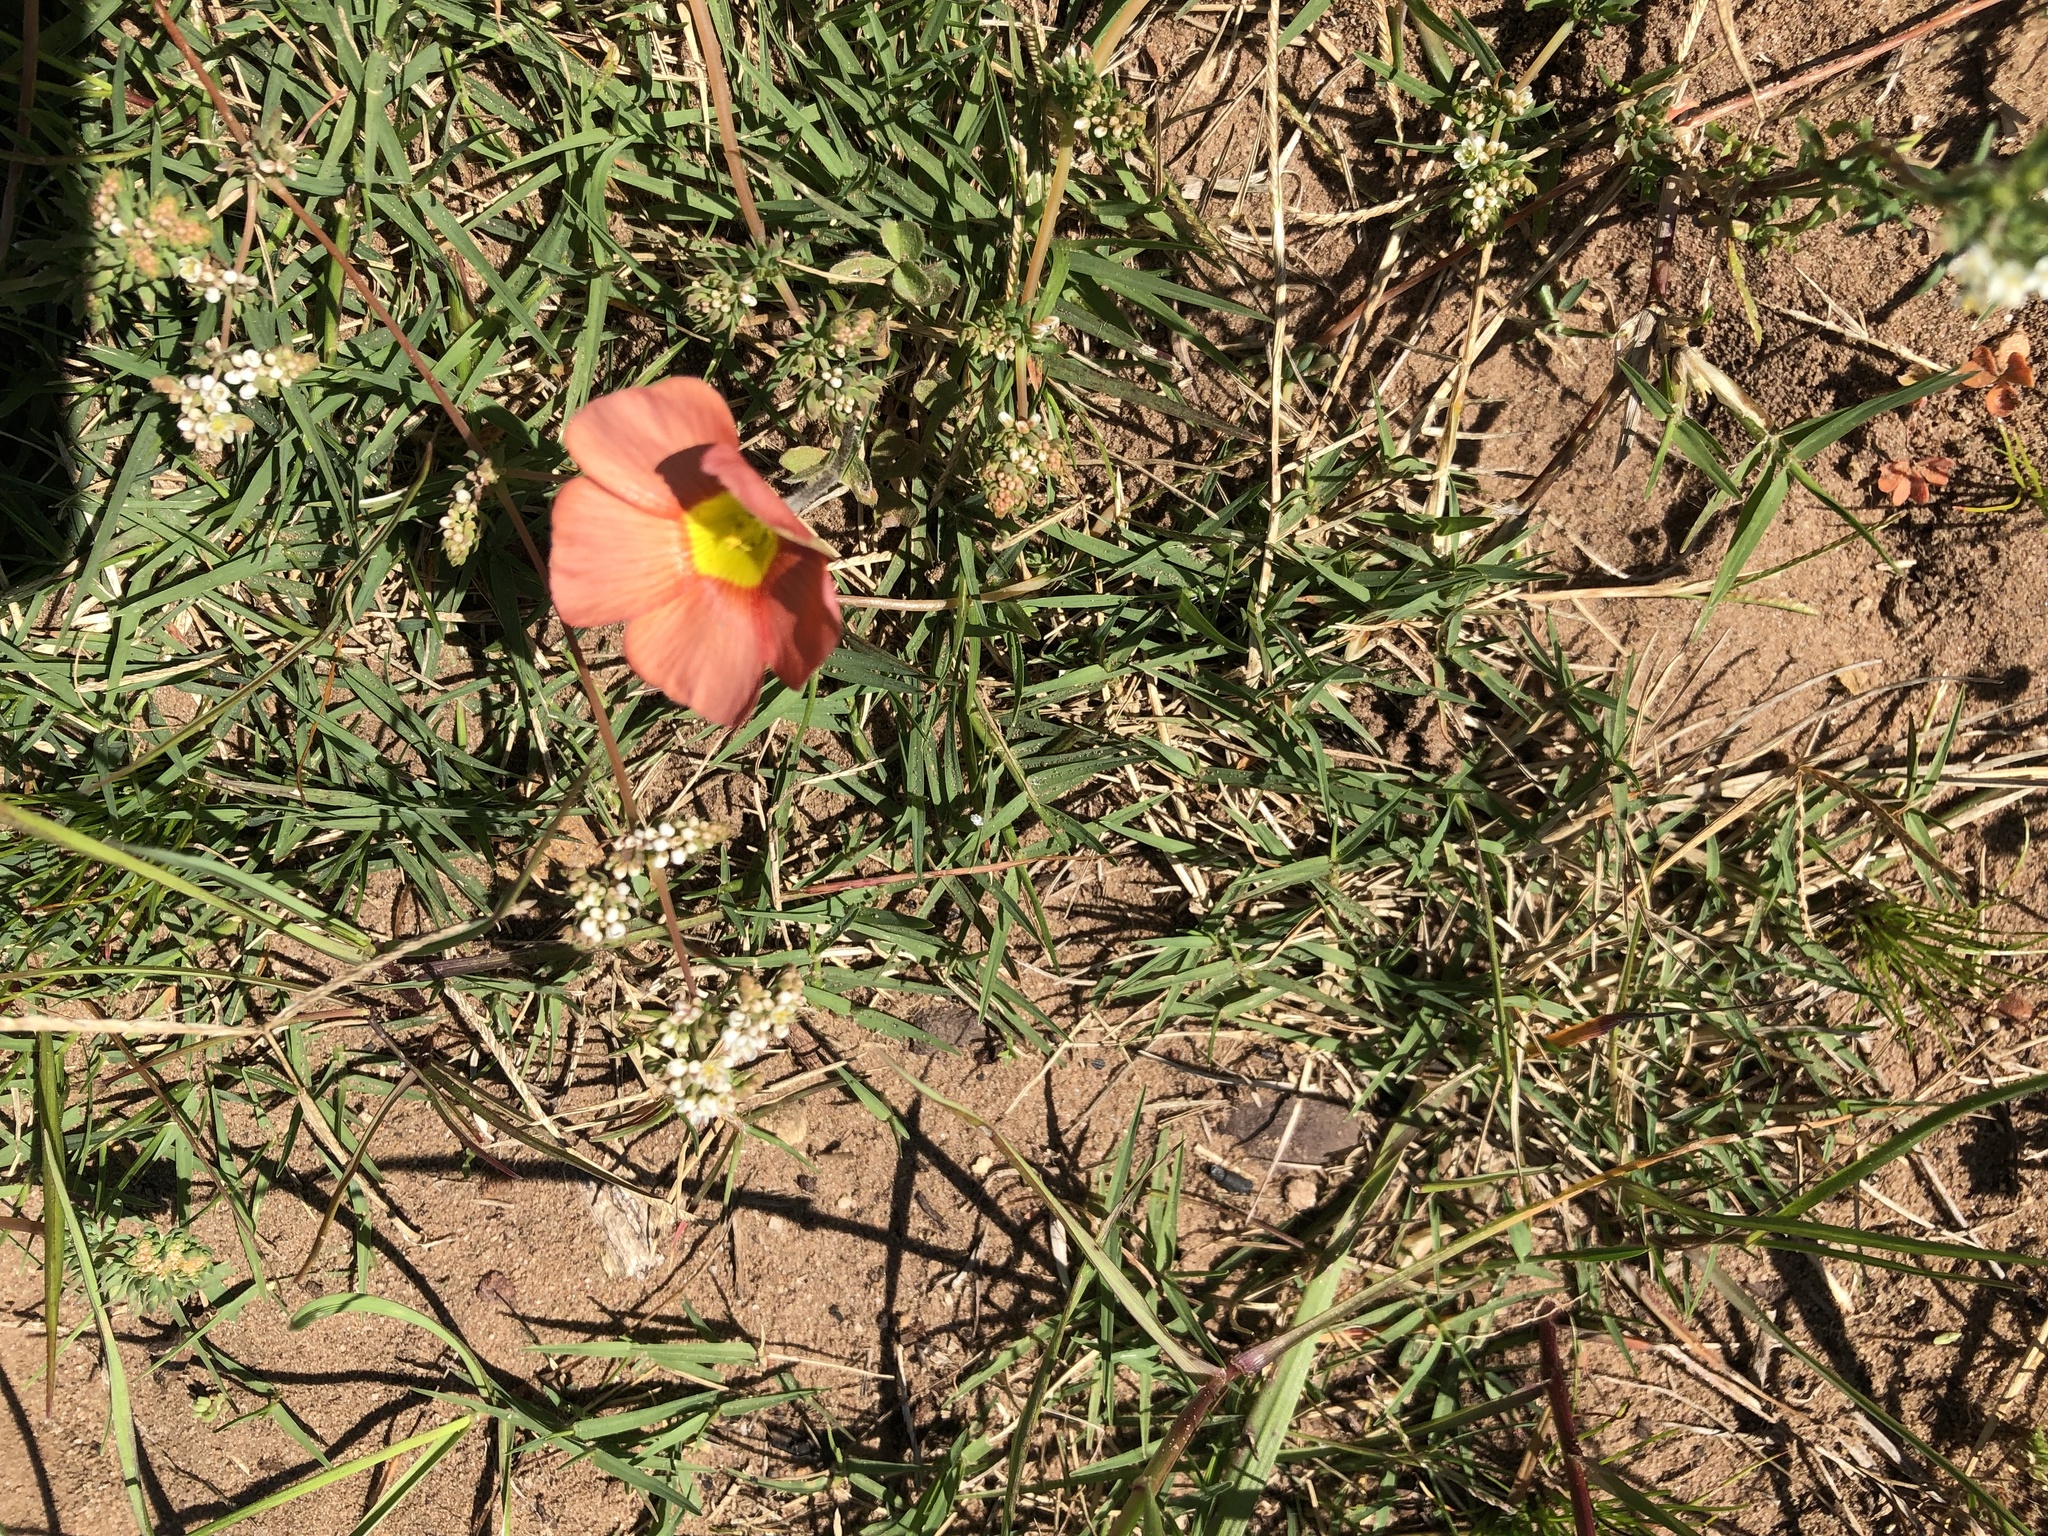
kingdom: Plantae
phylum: Tracheophyta
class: Magnoliopsida
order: Oxalidales
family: Oxalidaceae
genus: Oxalis
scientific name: Oxalis obtusa
